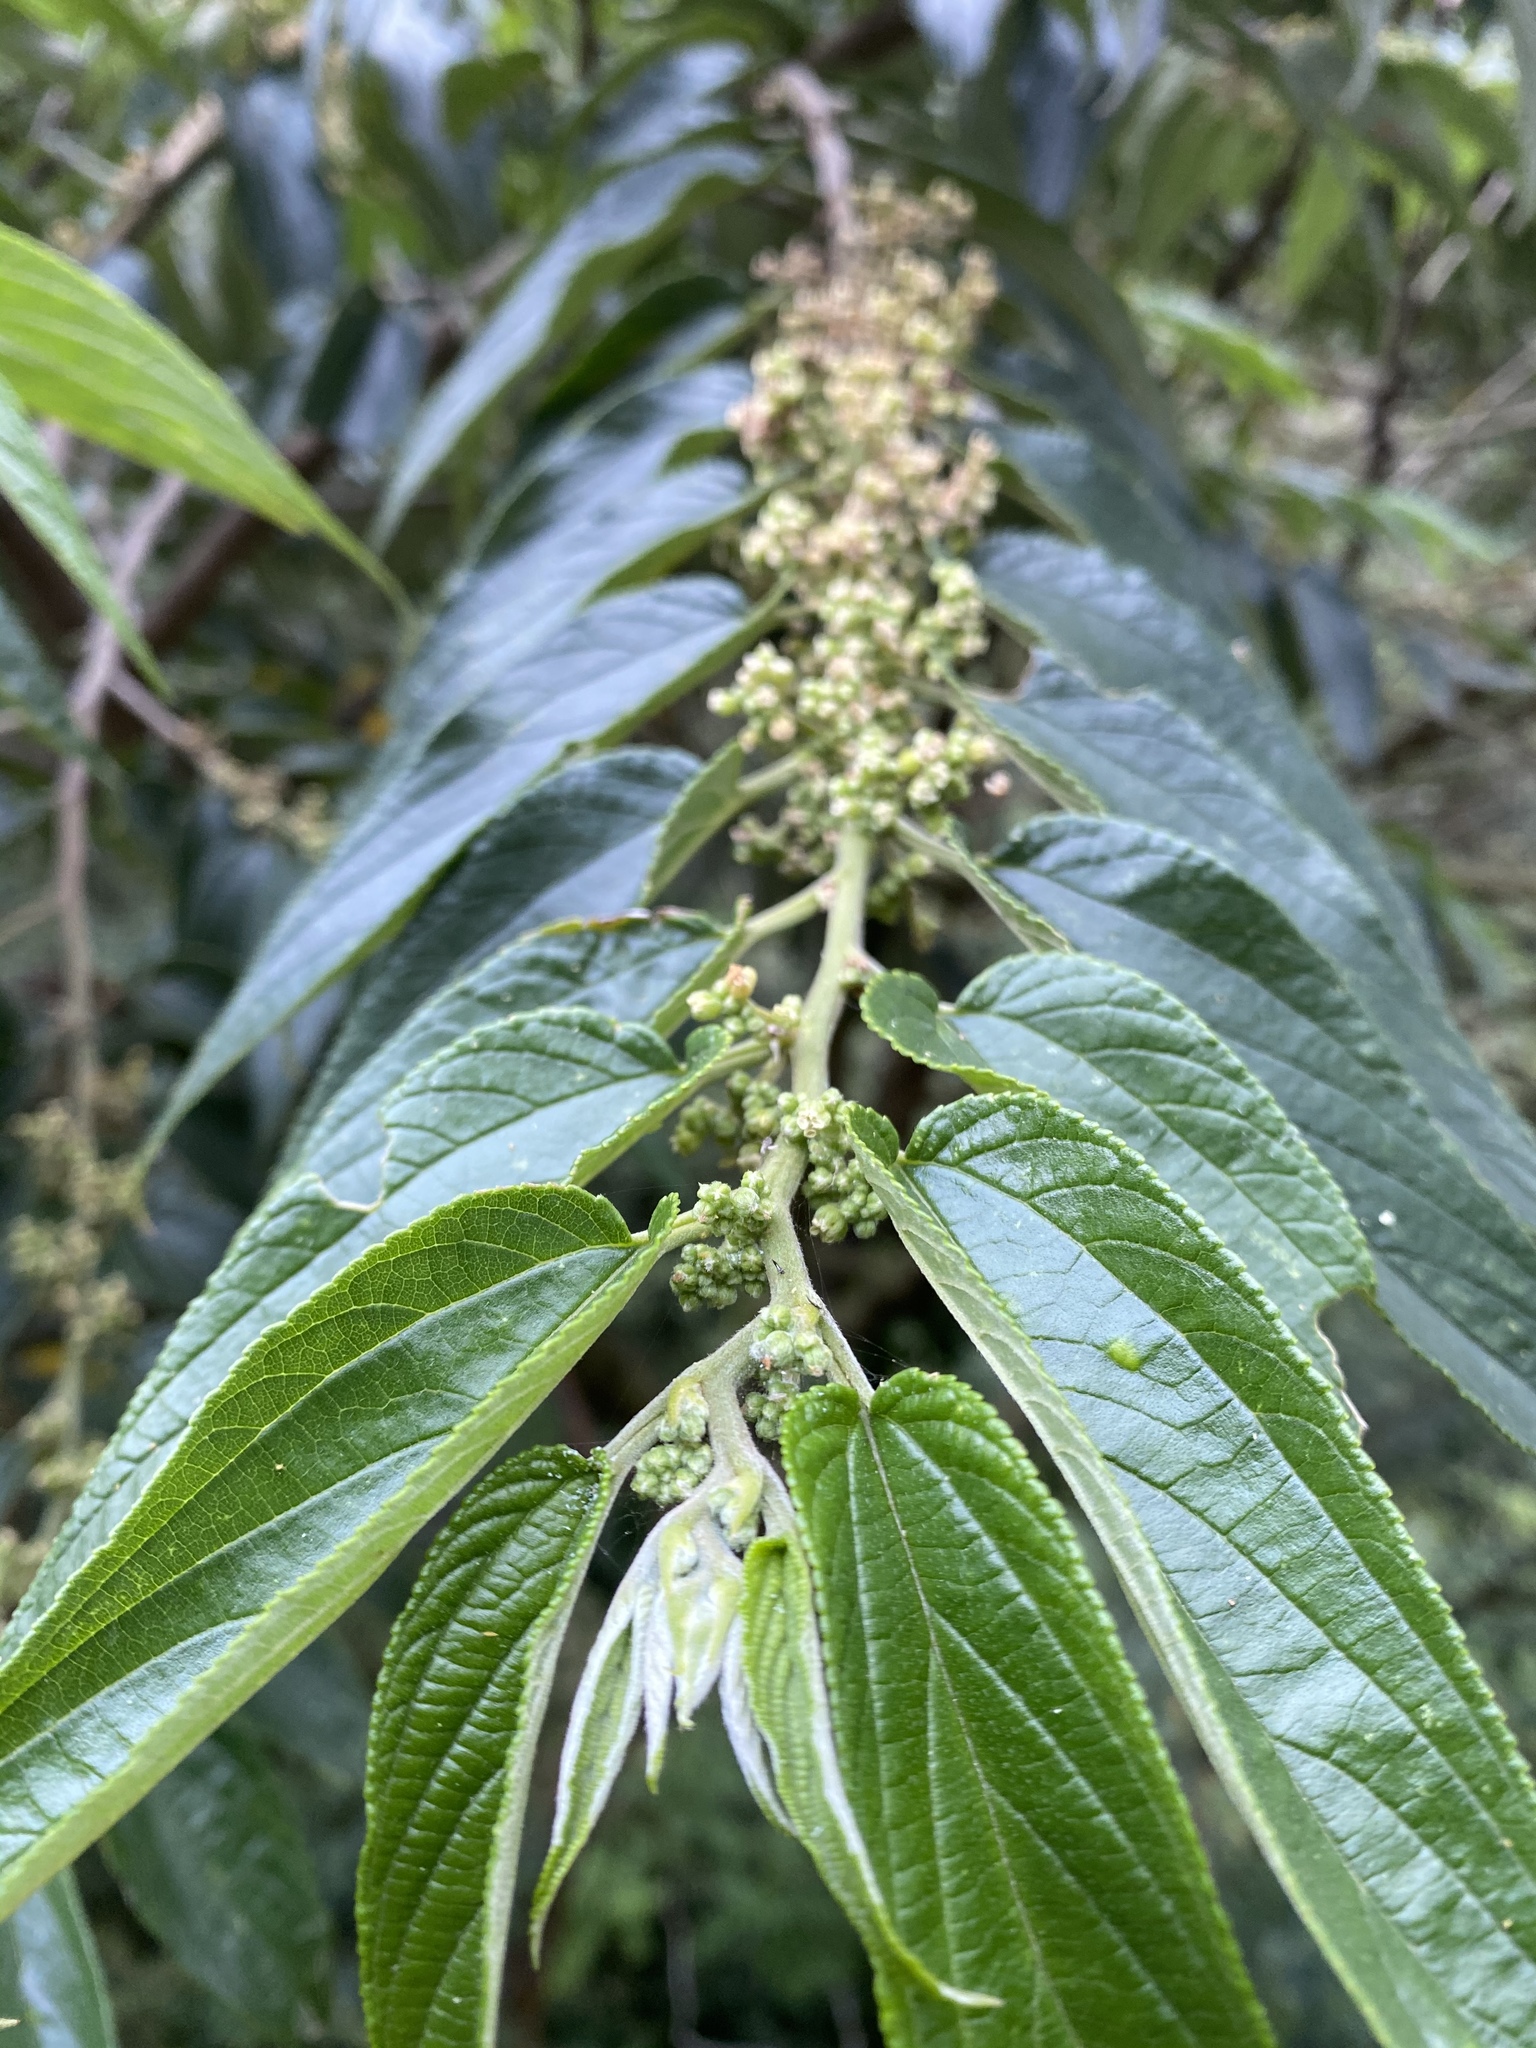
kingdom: Plantae
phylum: Tracheophyta
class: Magnoliopsida
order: Rosales
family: Cannabaceae
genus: Trema
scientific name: Trema orientale
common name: Indian charcoal tree
